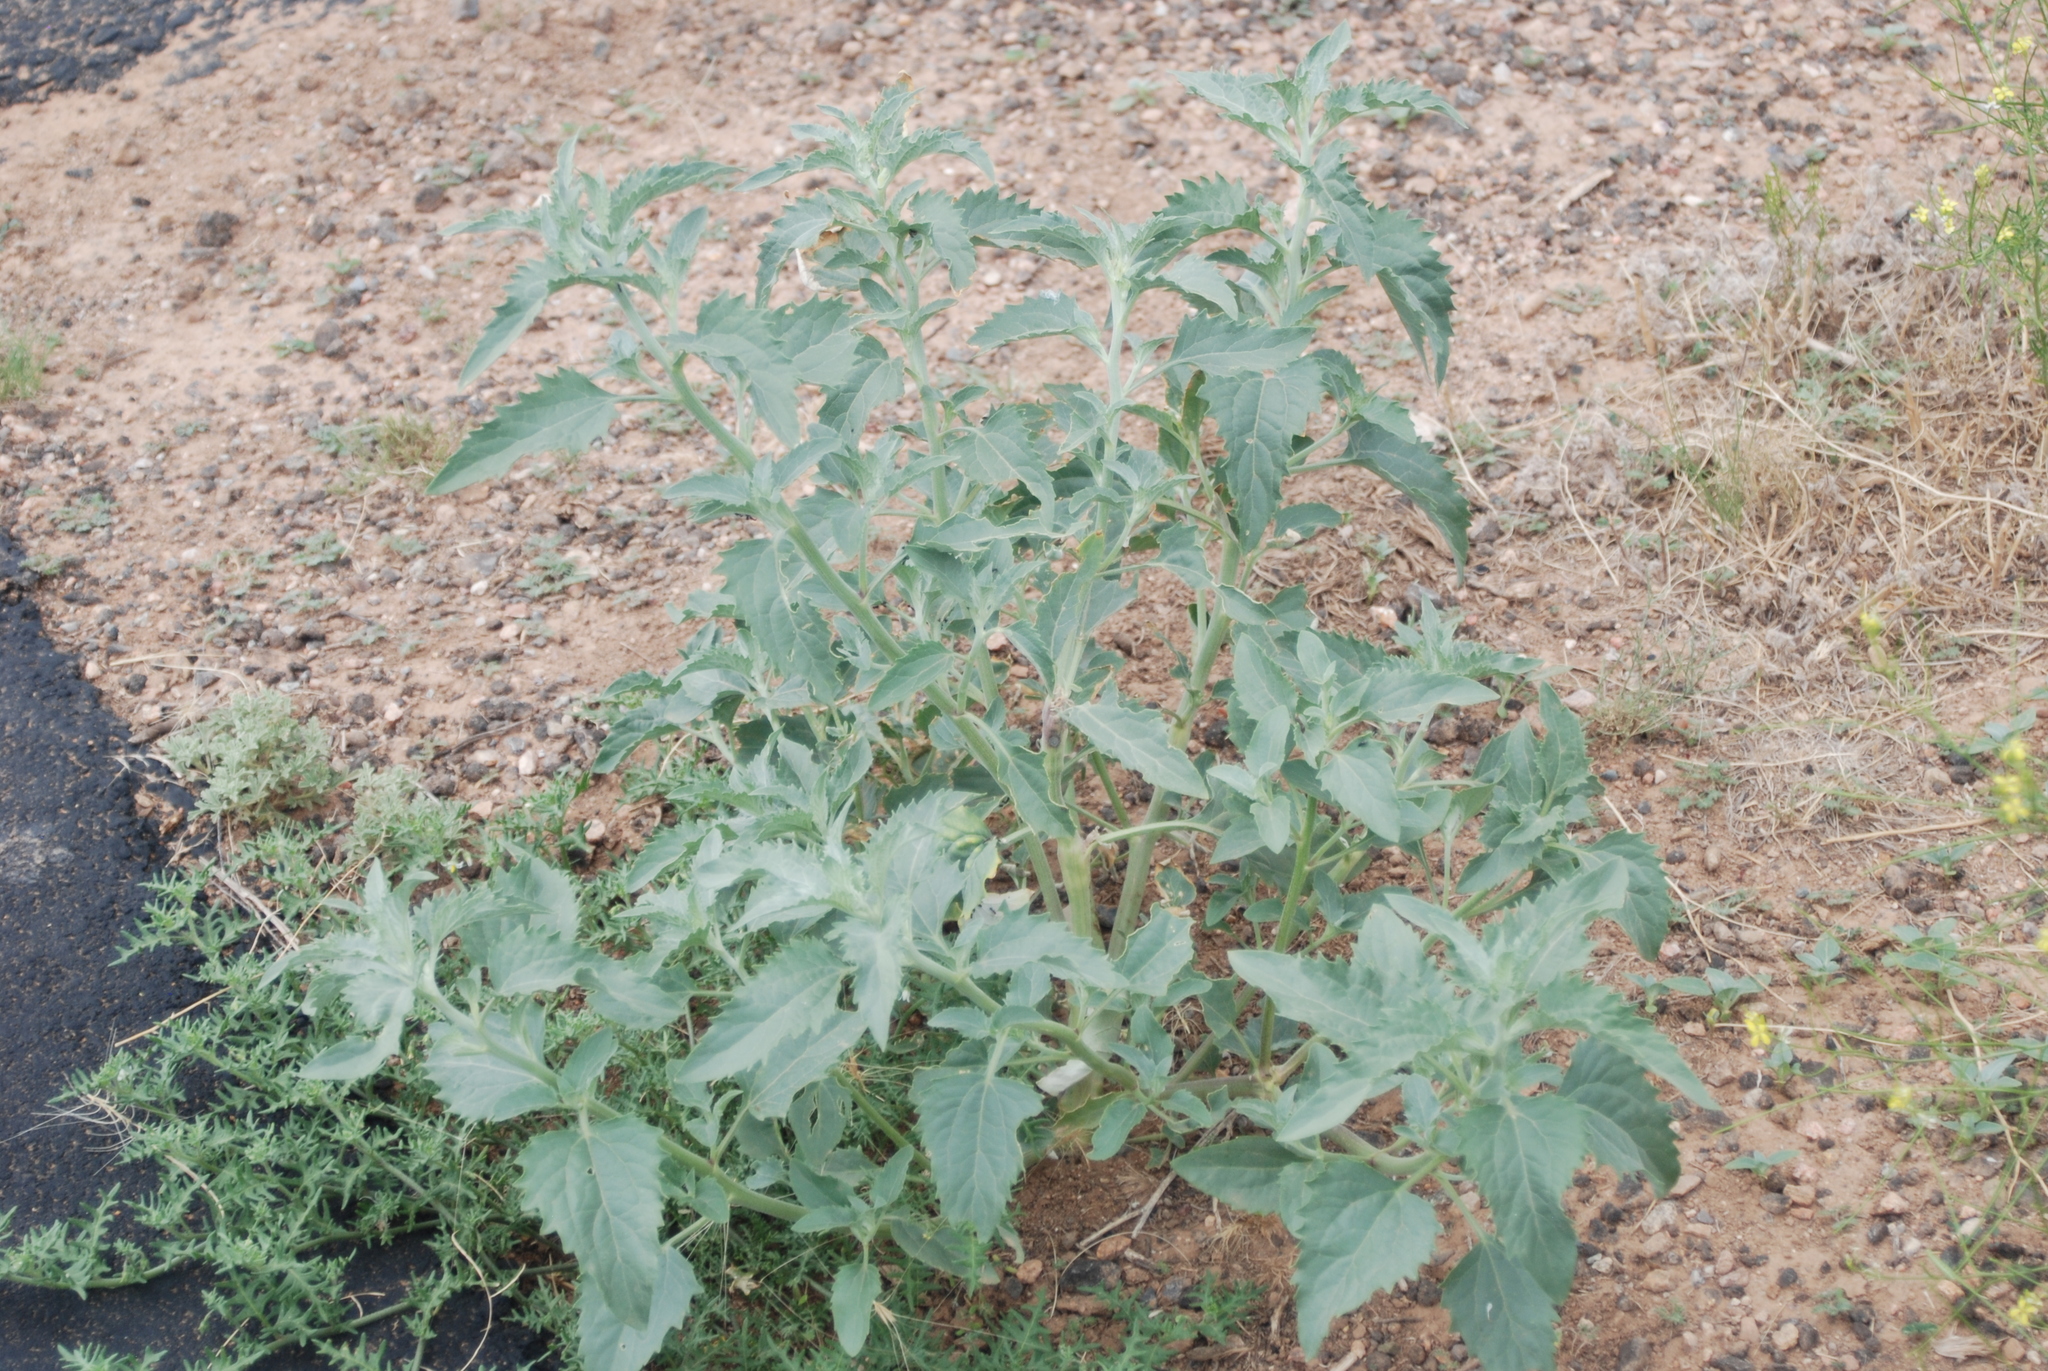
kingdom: Plantae
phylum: Tracheophyta
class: Magnoliopsida
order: Asterales
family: Asteraceae
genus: Verbesina
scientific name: Verbesina encelioides
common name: Golden crownbeard
